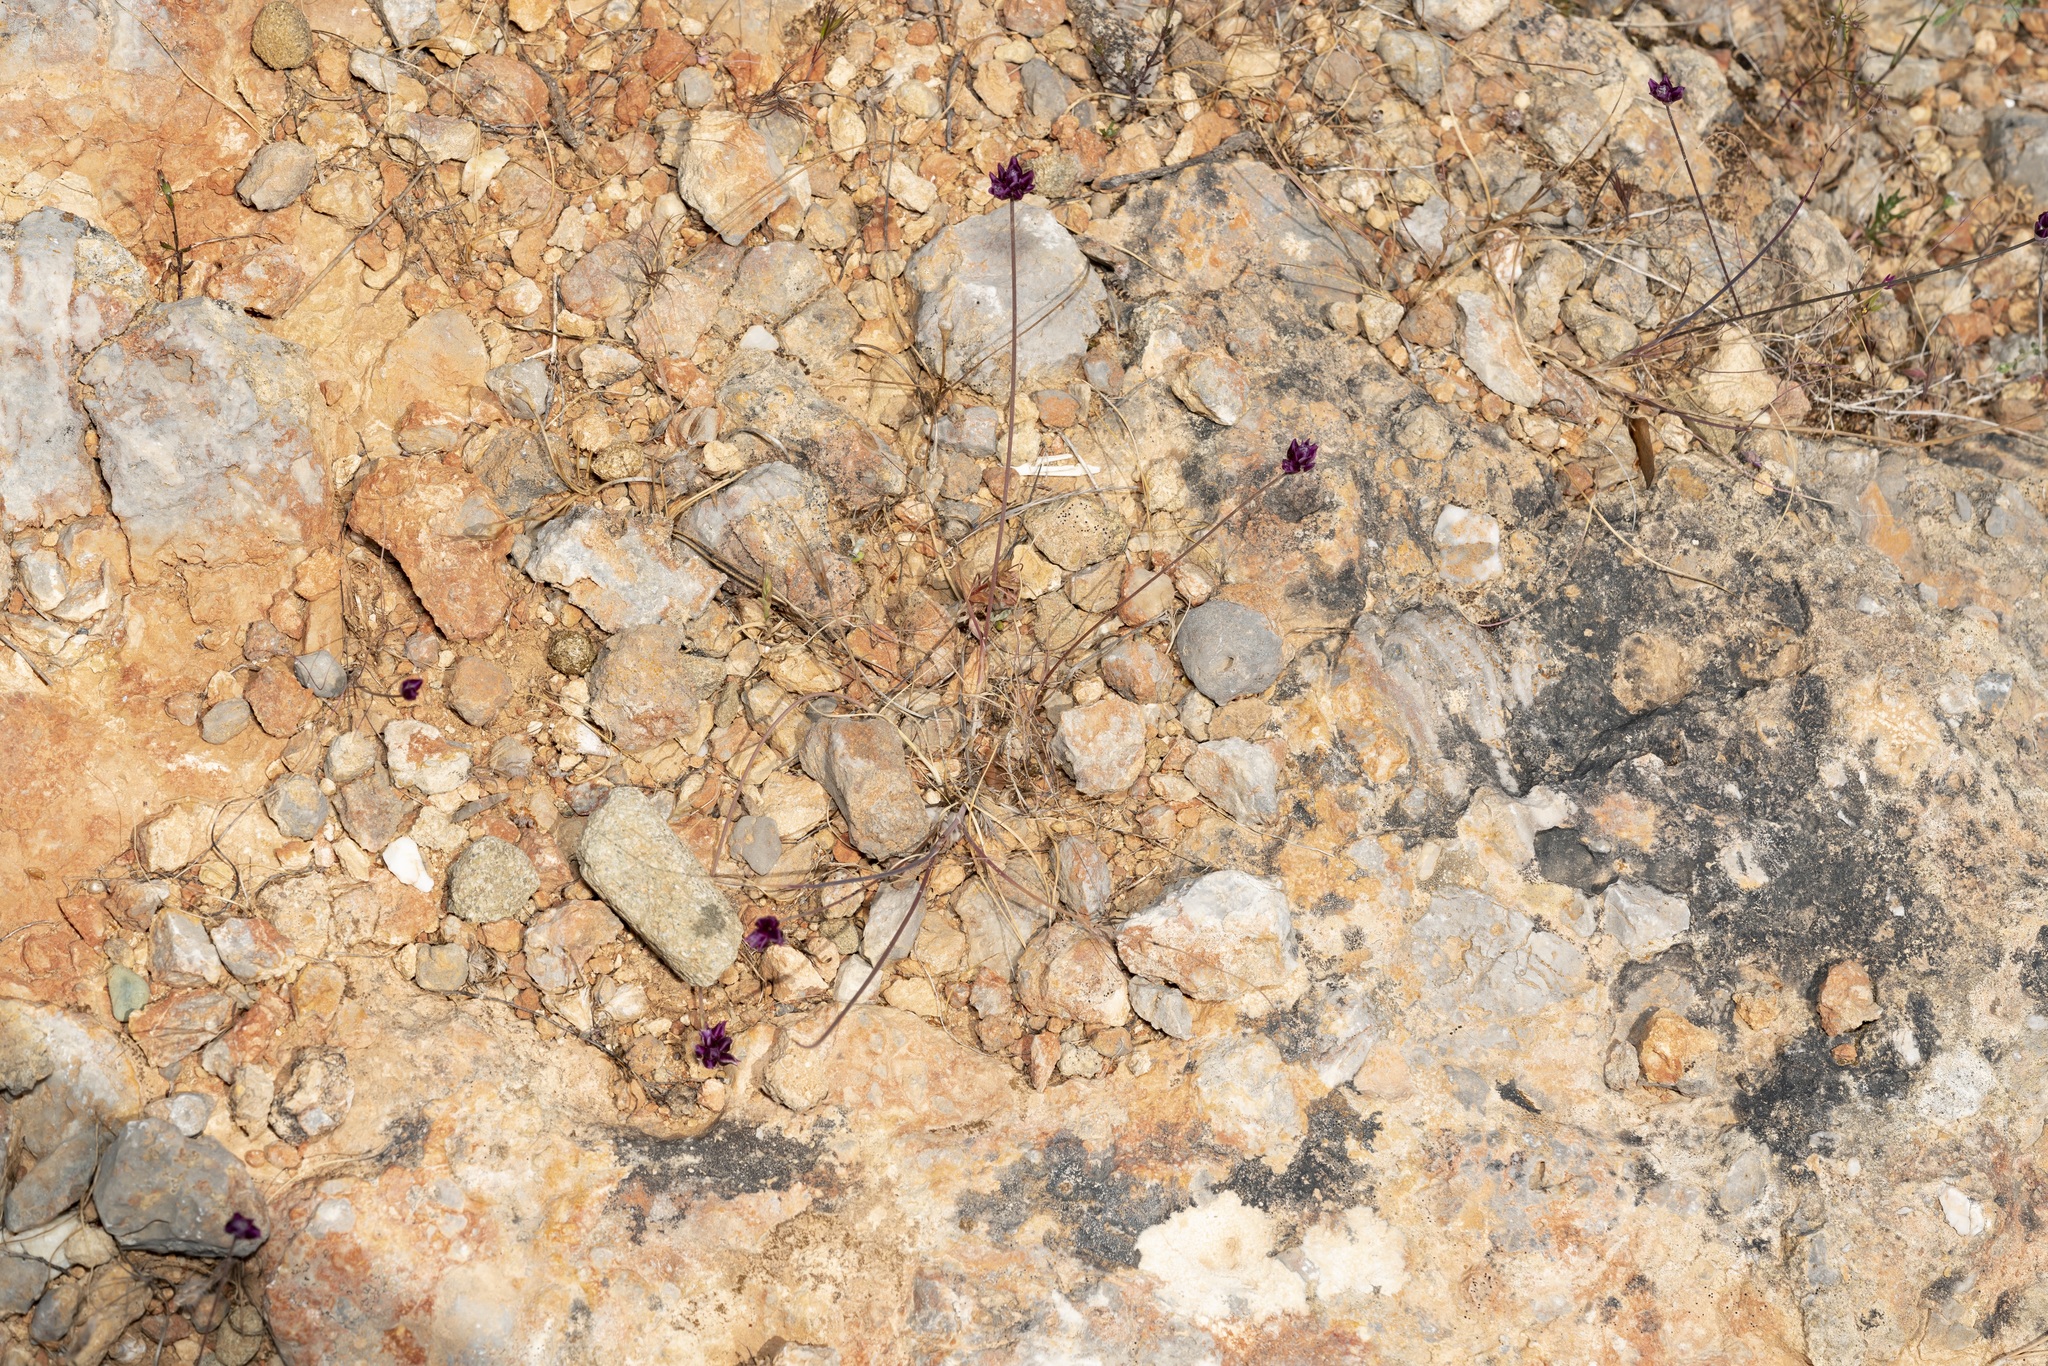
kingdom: Plantae
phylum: Tracheophyta
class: Liliopsida
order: Asparagales
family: Amaryllidaceae
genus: Allium
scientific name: Allium junceum
